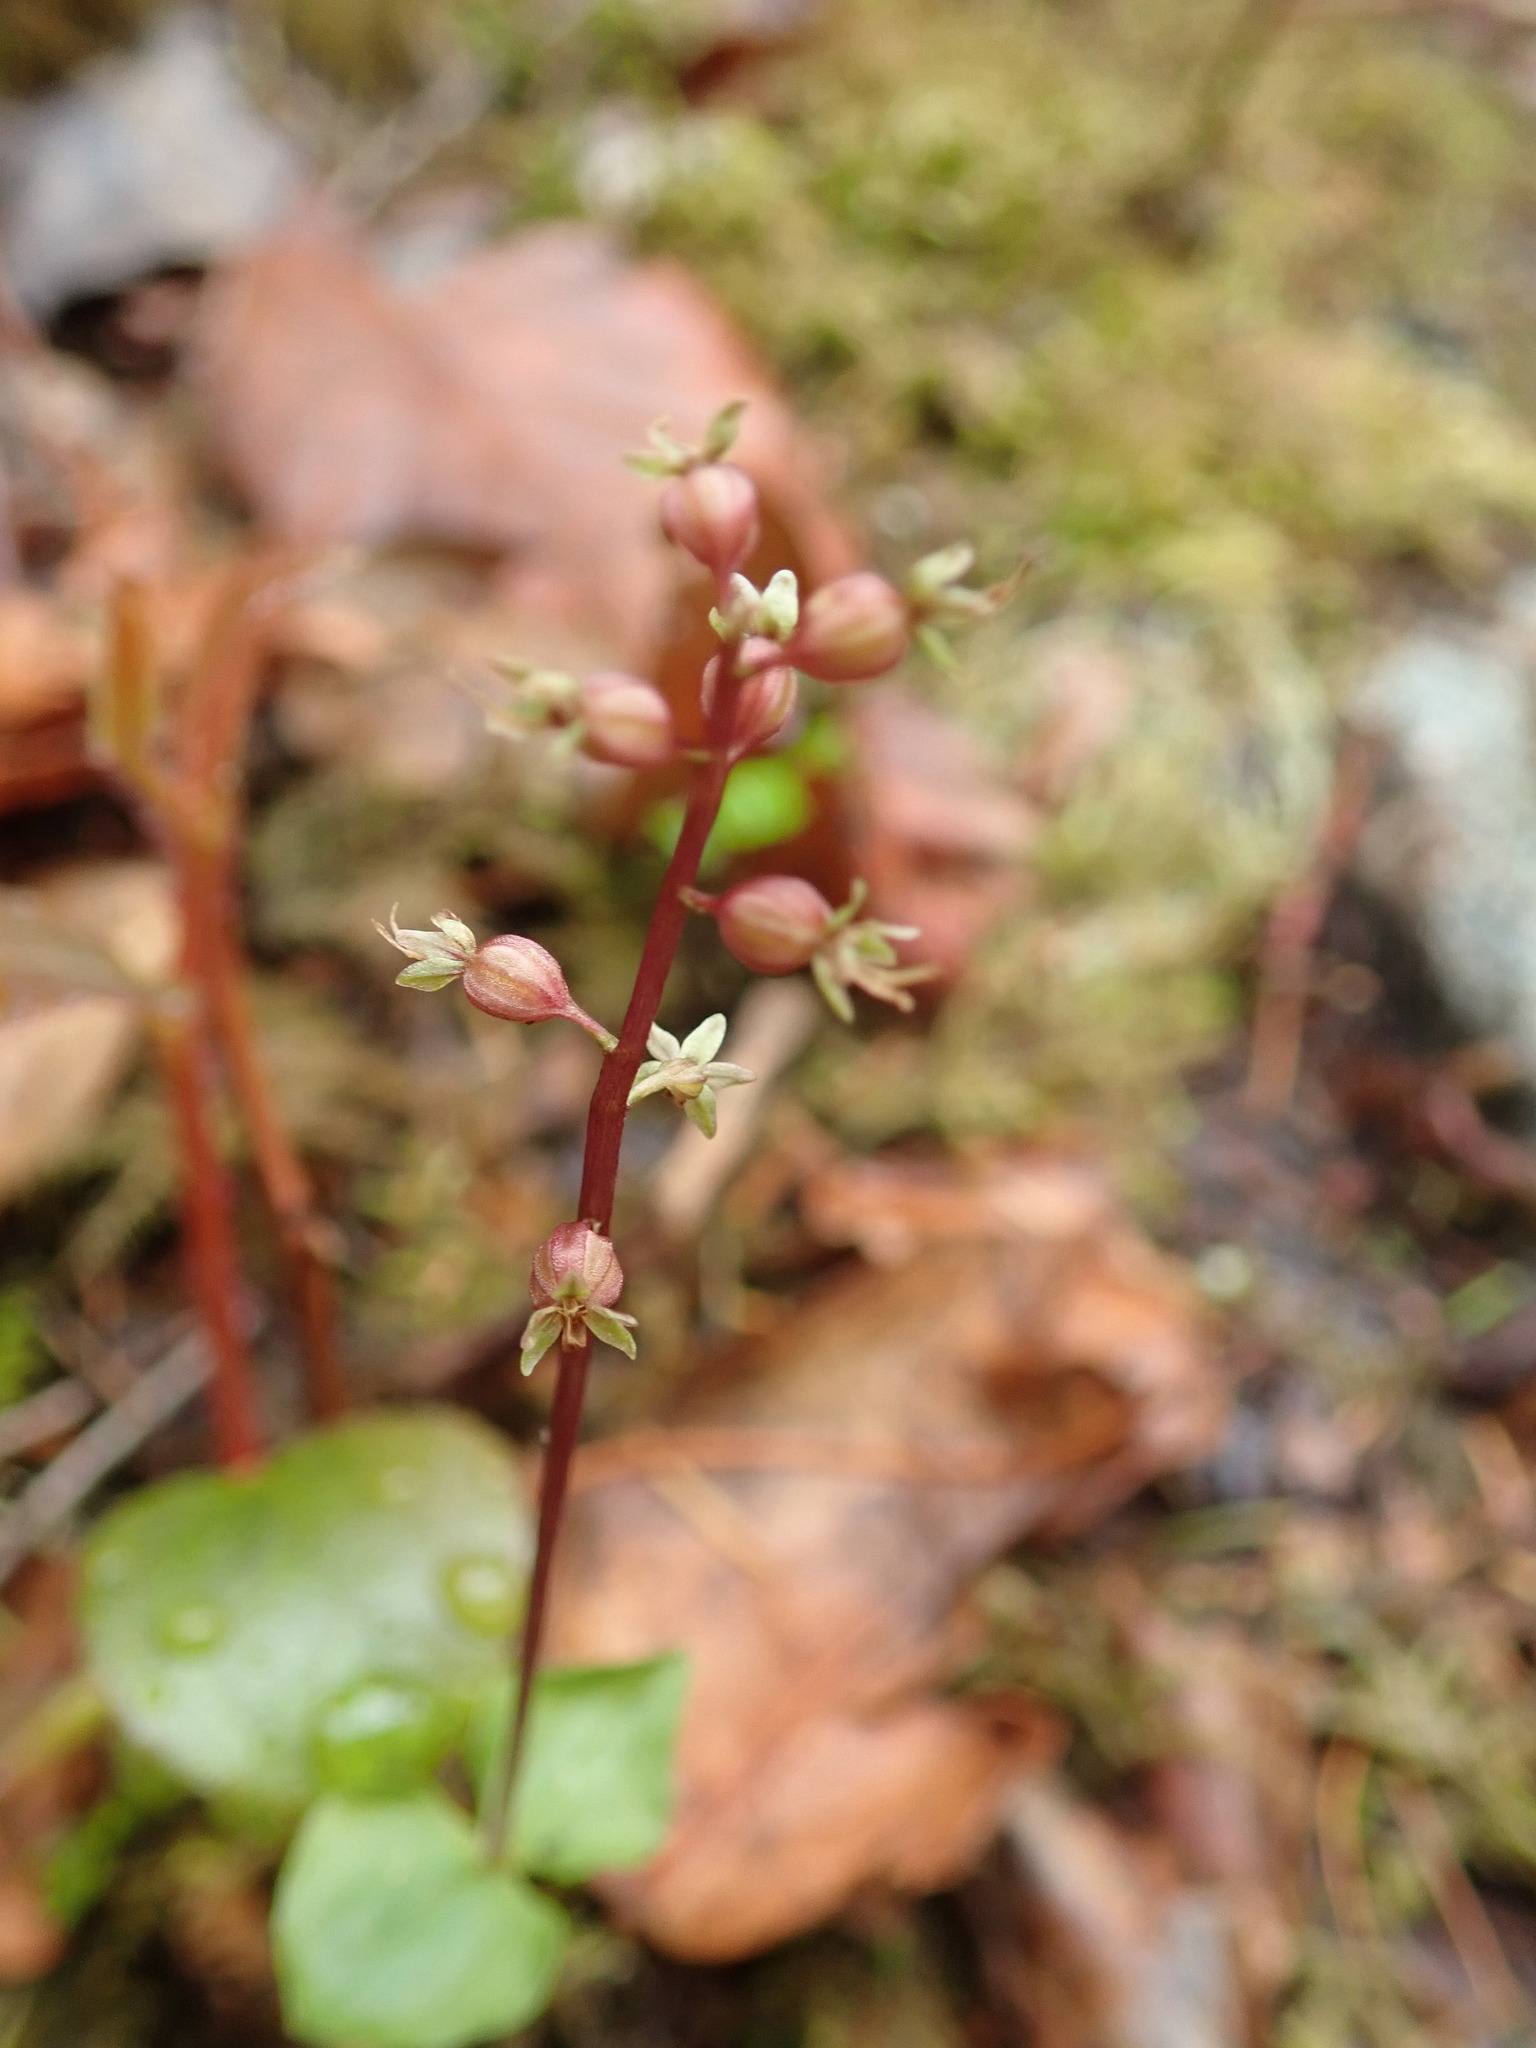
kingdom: Plantae
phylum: Tracheophyta
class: Liliopsida
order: Asparagales
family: Orchidaceae
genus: Neottia
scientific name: Neottia cordata
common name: Lesser twayblade
